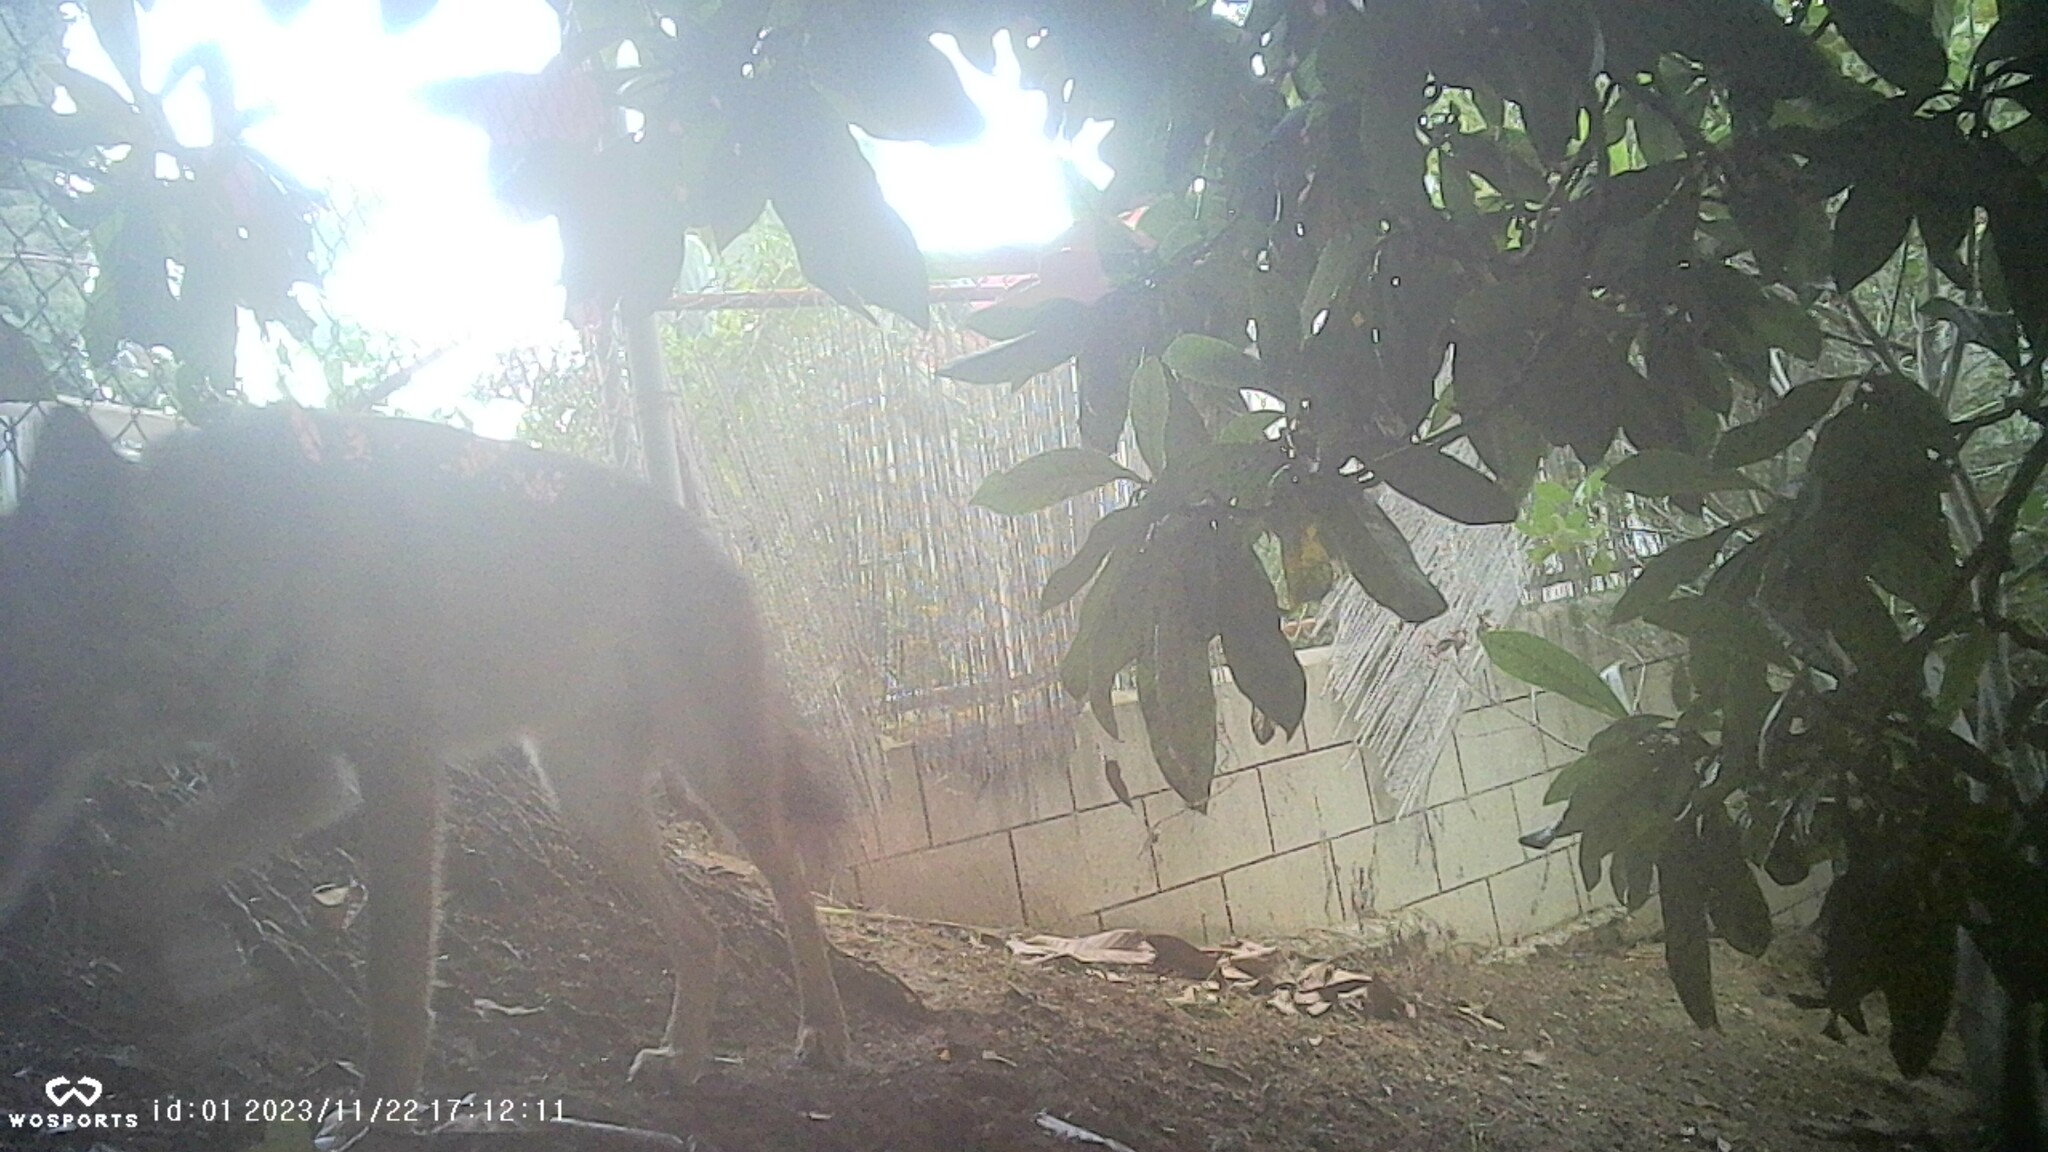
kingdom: Animalia
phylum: Chordata
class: Mammalia
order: Carnivora
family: Canidae
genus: Canis
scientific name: Canis latrans
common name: Coyote
